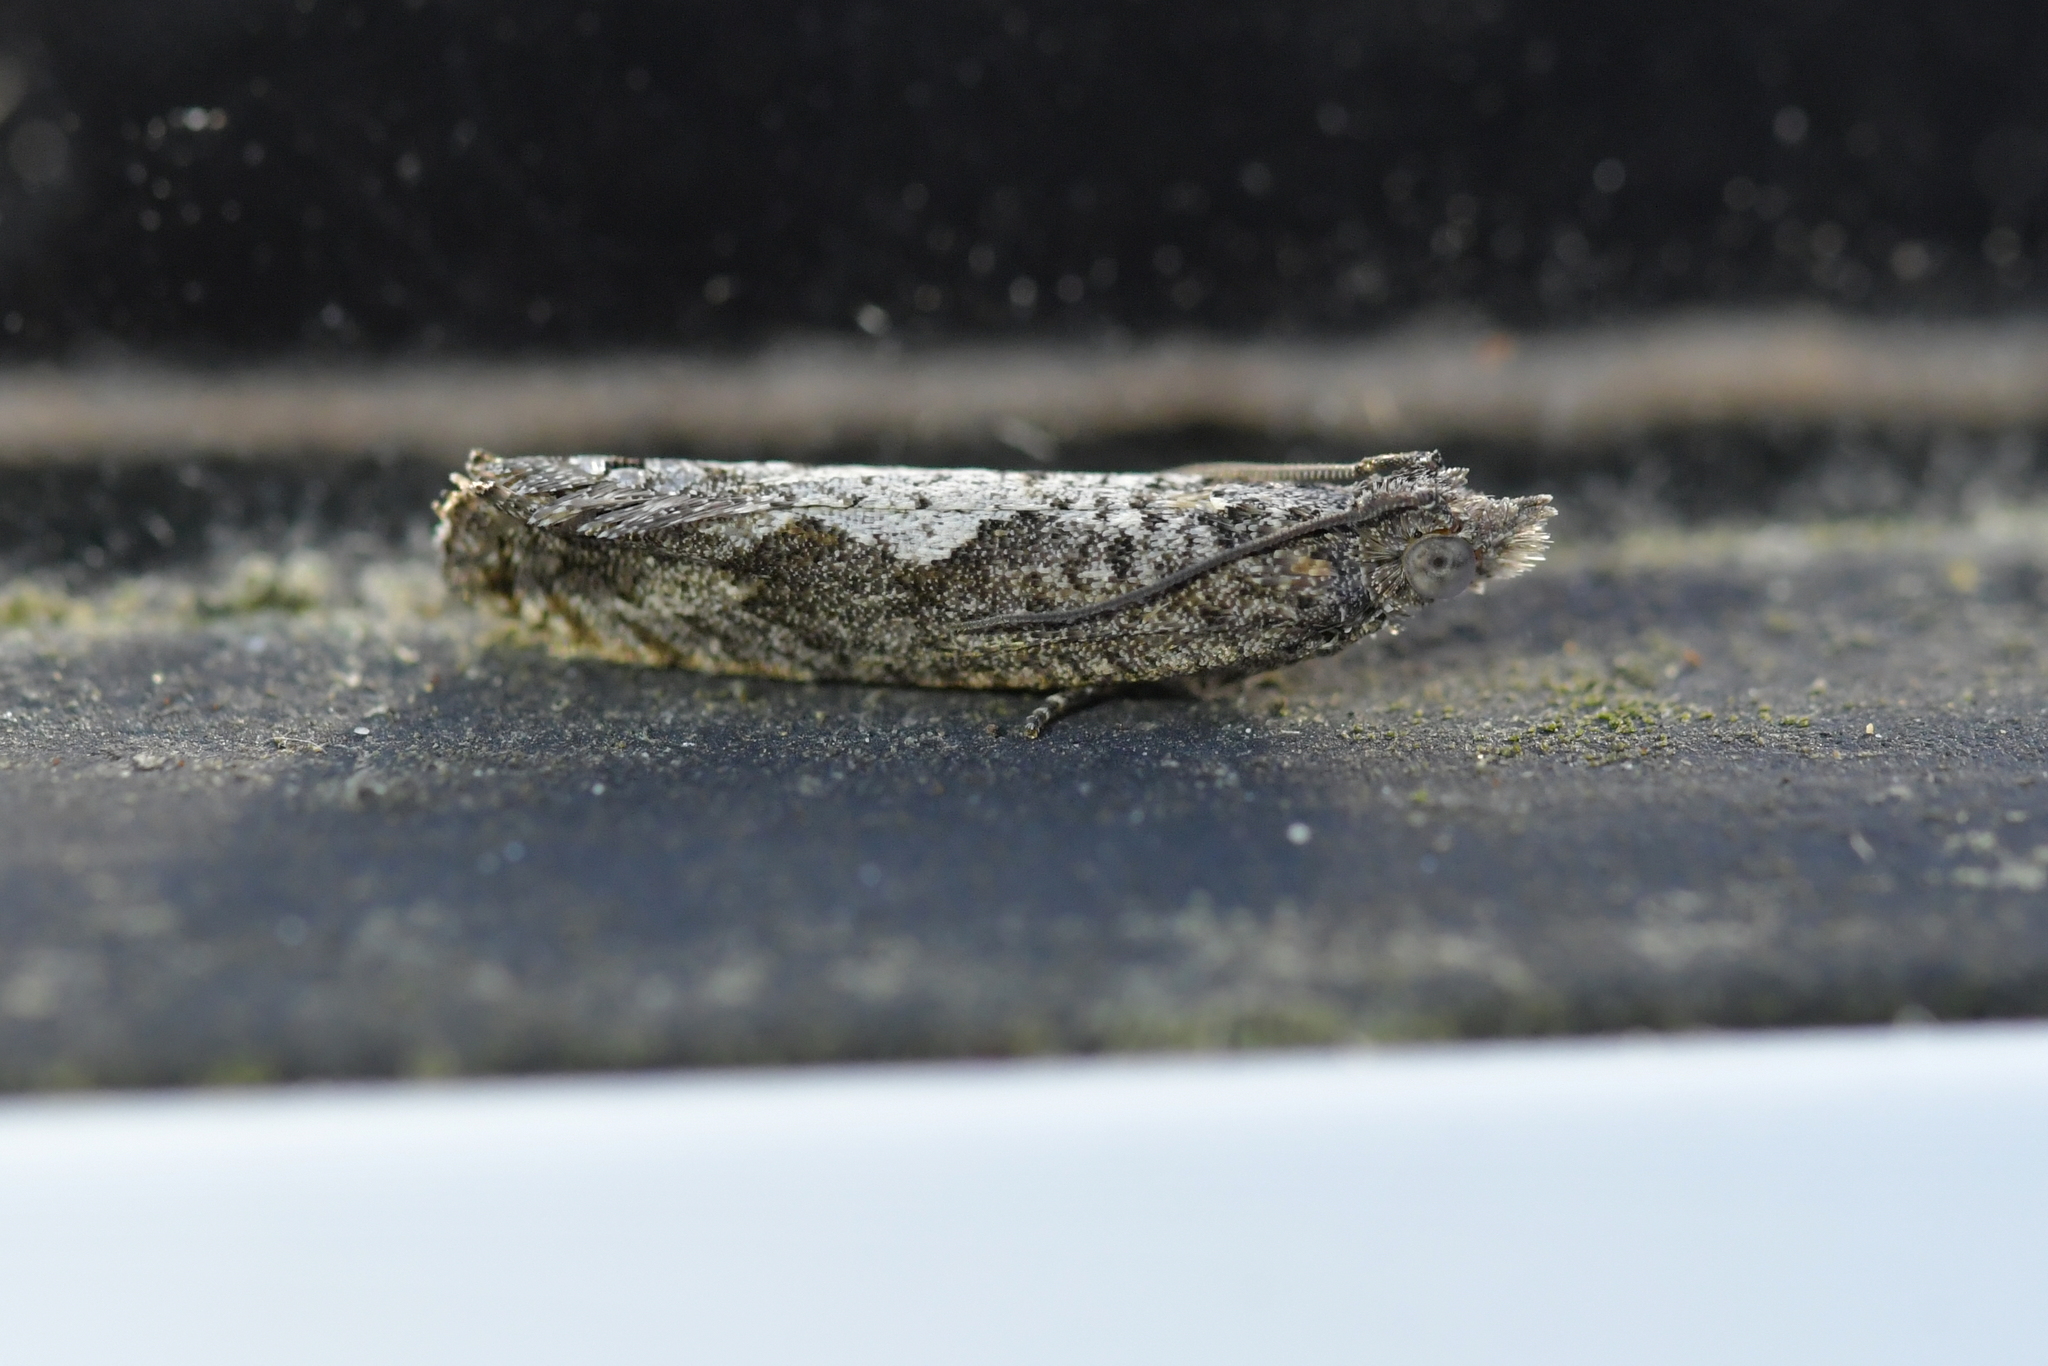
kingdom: Animalia
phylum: Arthropoda
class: Insecta
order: Lepidoptera
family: Tortricidae
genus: Strepsicrates
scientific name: Strepsicrates macropetana
